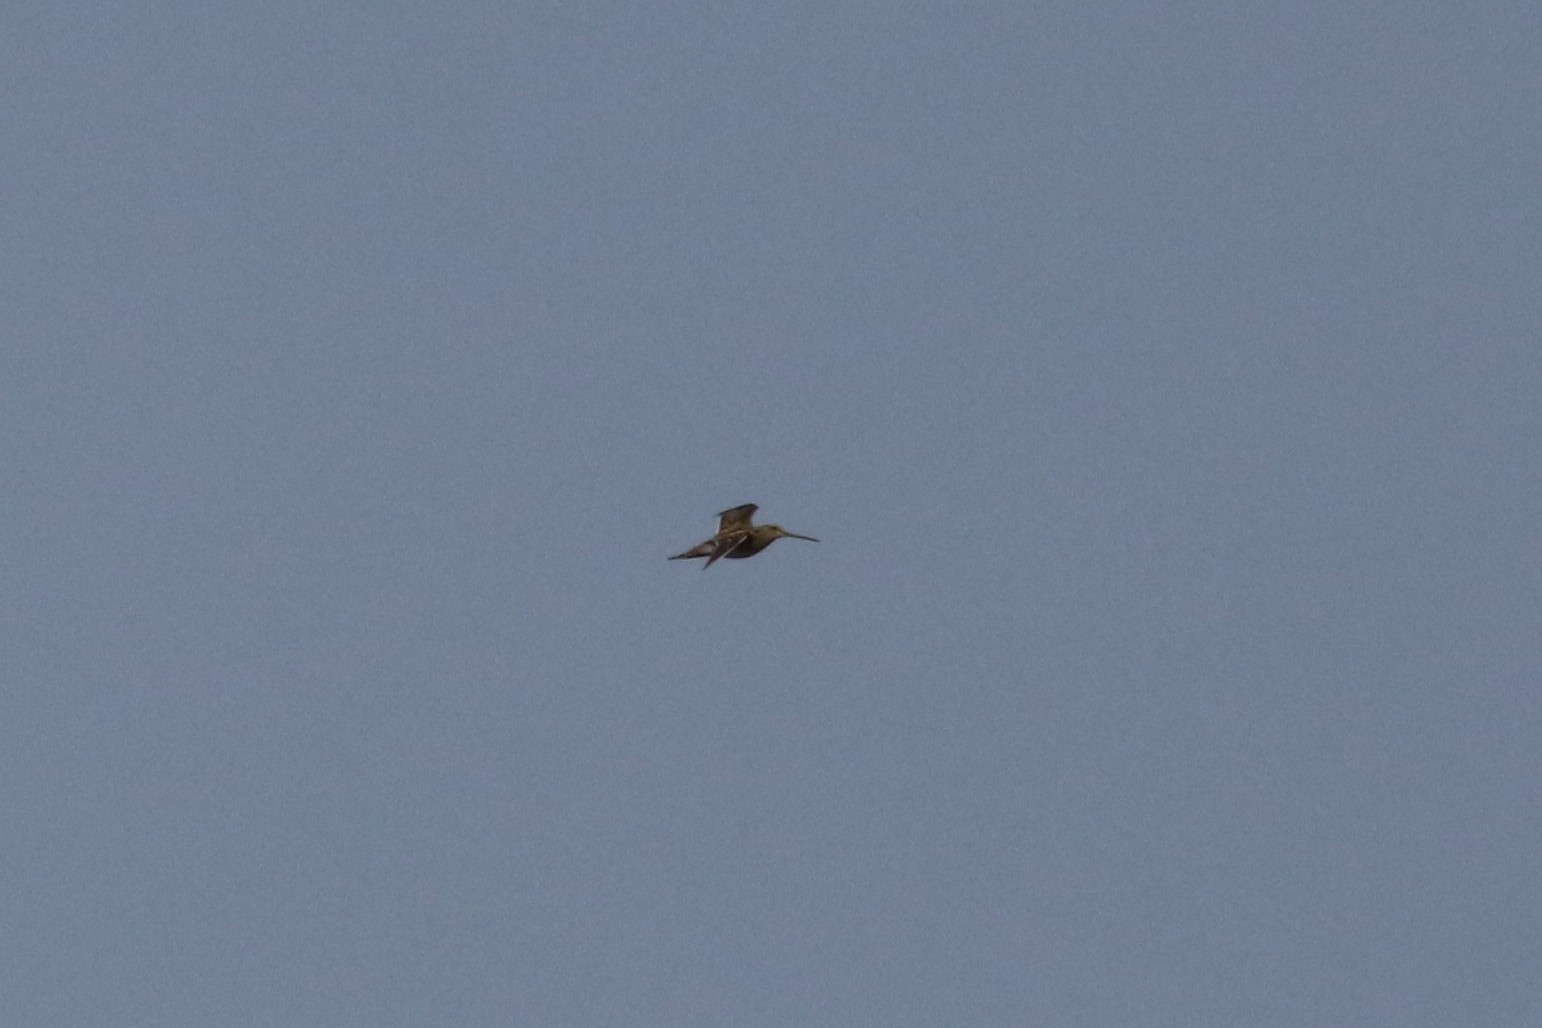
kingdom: Animalia
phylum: Chordata
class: Aves
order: Charadriiformes
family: Scolopacidae
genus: Gallinago
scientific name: Gallinago gallinago
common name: Common snipe
